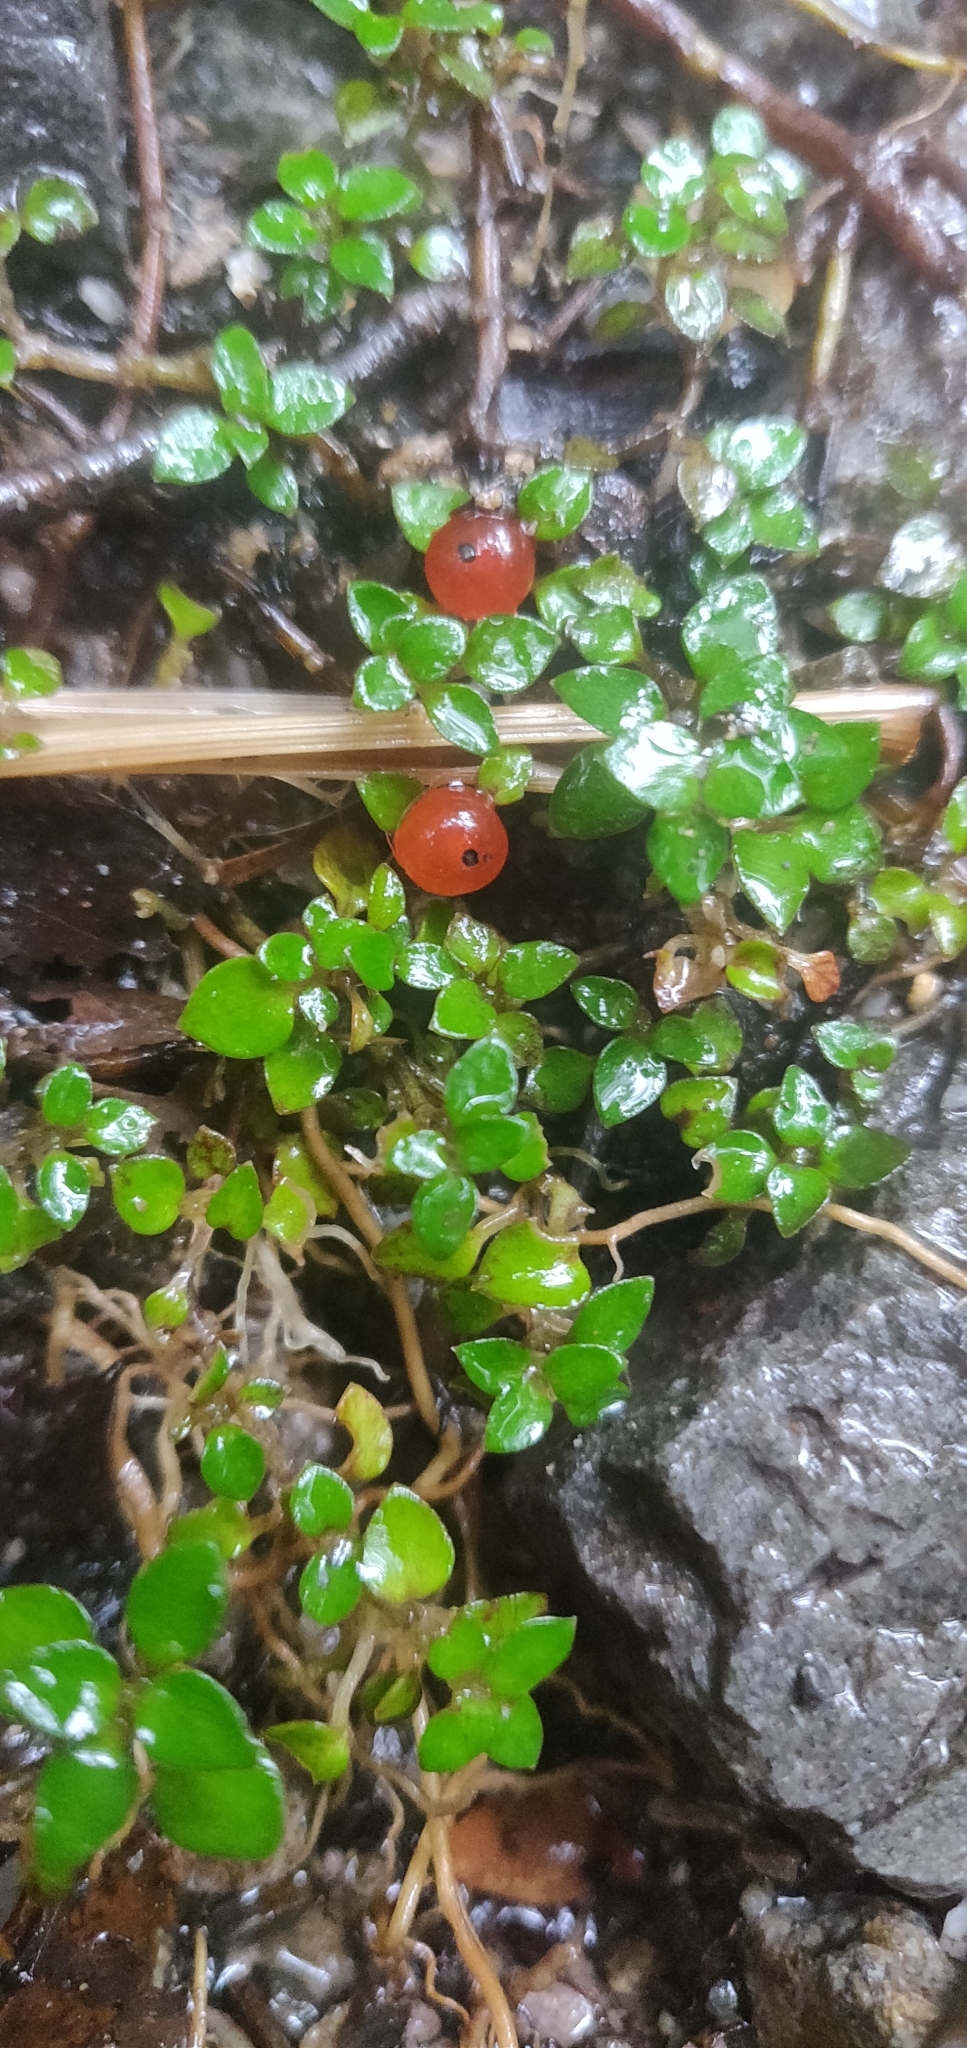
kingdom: Plantae
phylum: Tracheophyta
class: Magnoliopsida
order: Gentianales
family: Rubiaceae
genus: Nertera
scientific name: Nertera granadensis
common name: Beadplant
